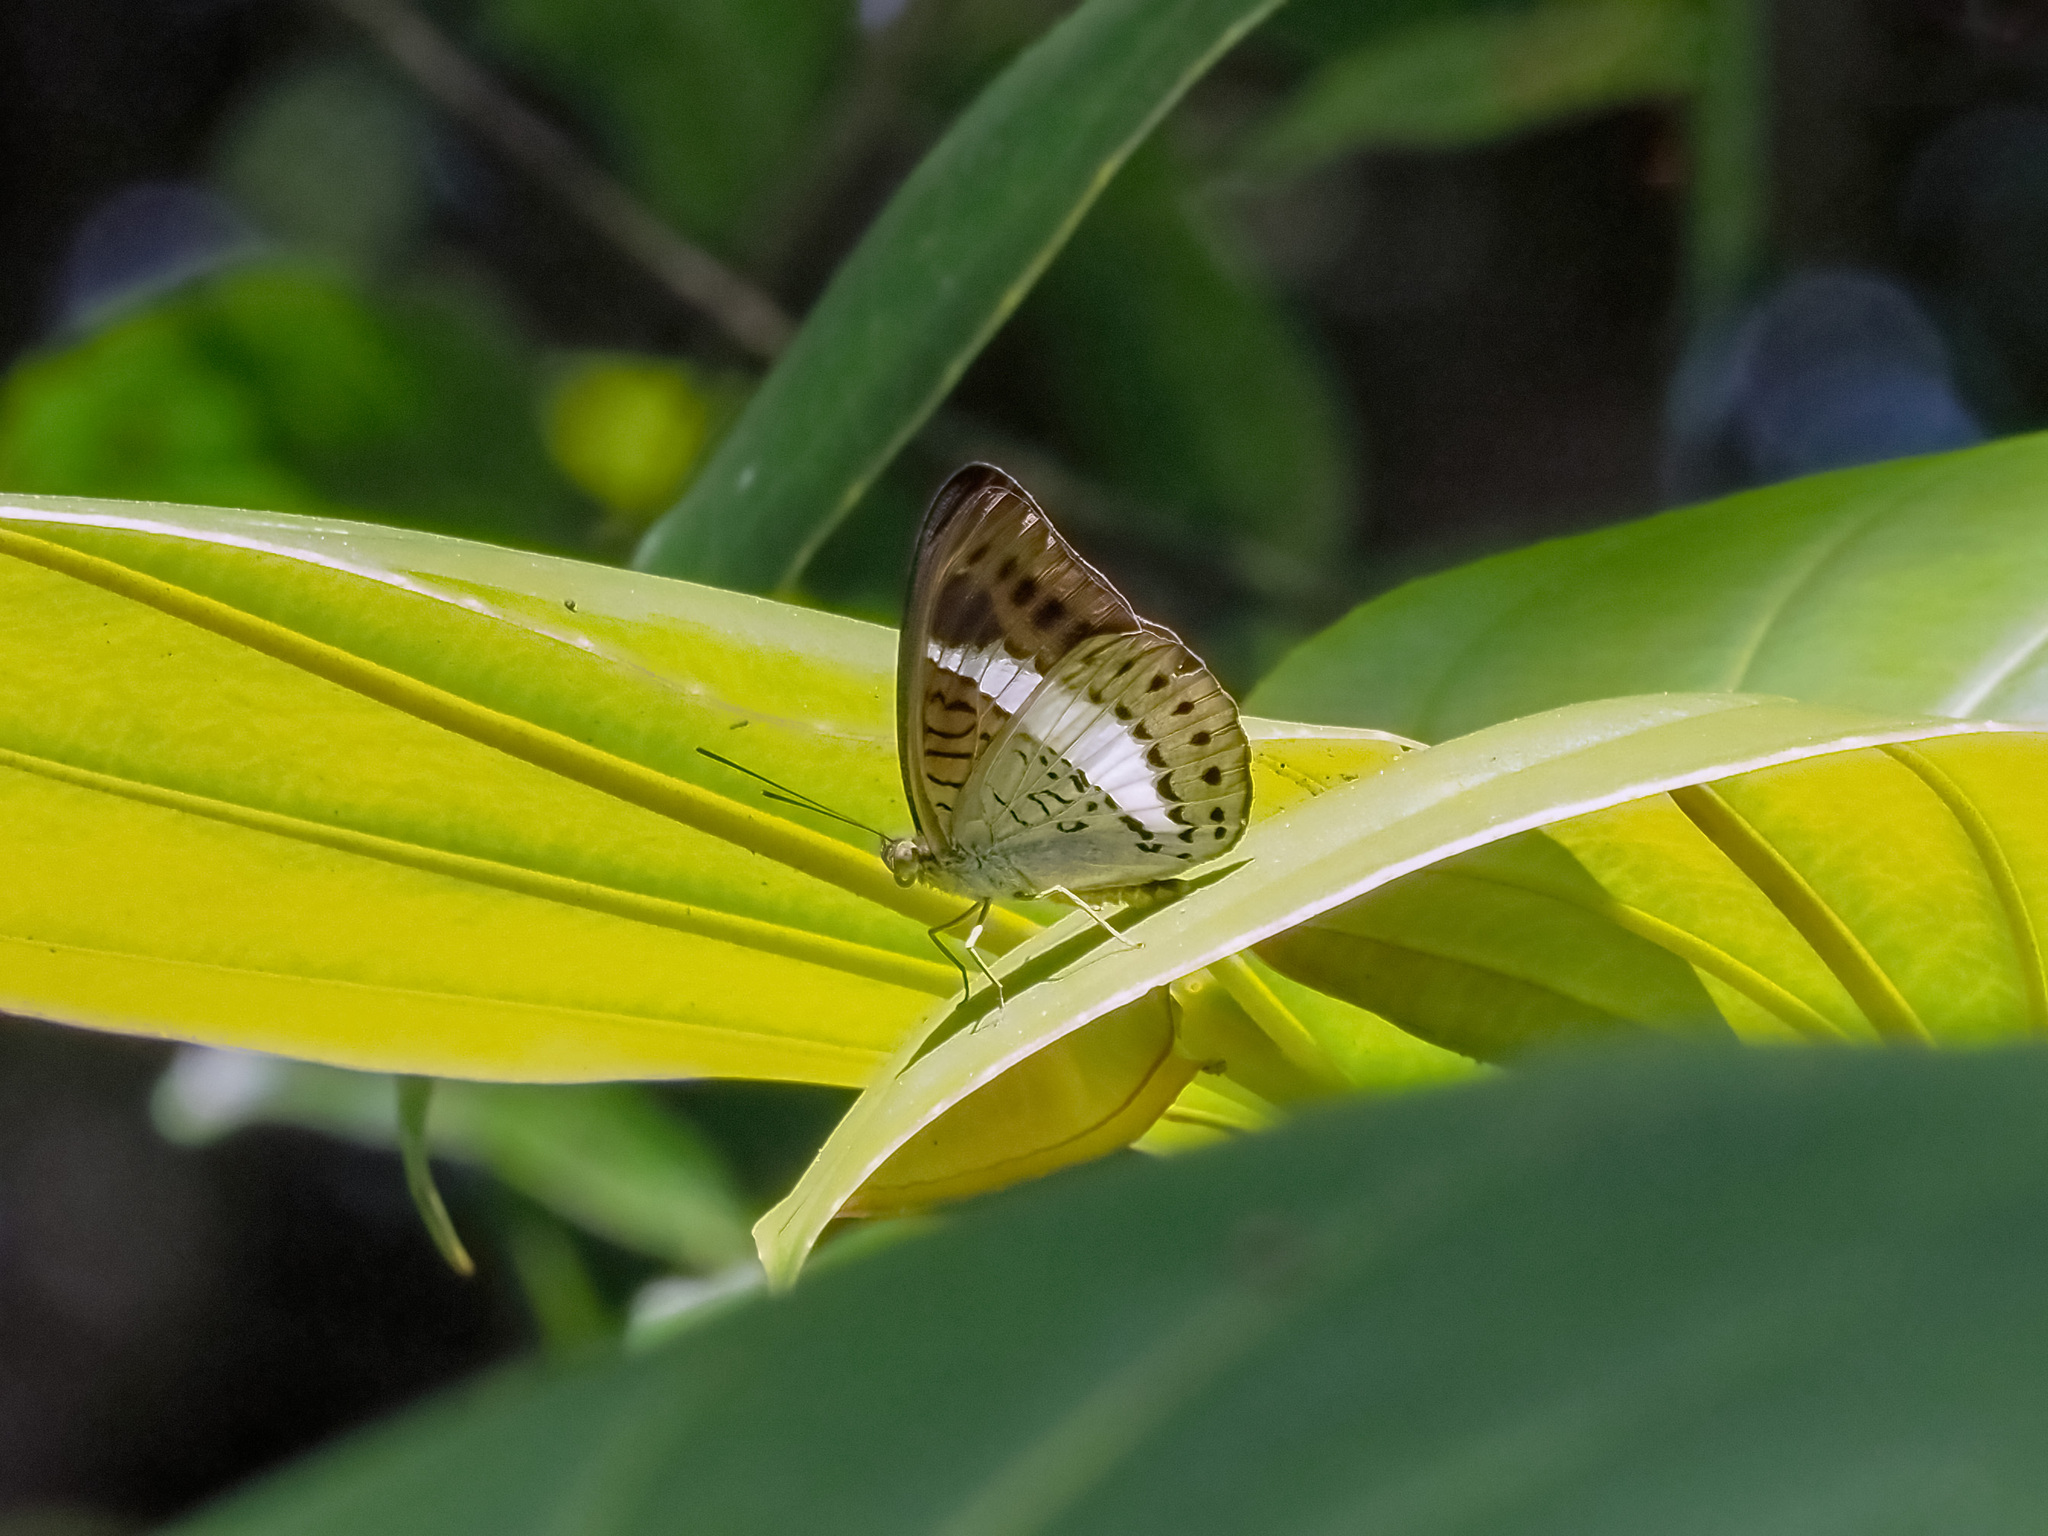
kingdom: Animalia
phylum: Arthropoda
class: Insecta
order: Lepidoptera
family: Nymphalidae
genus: Tanaecia
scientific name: Tanaecia amisa
